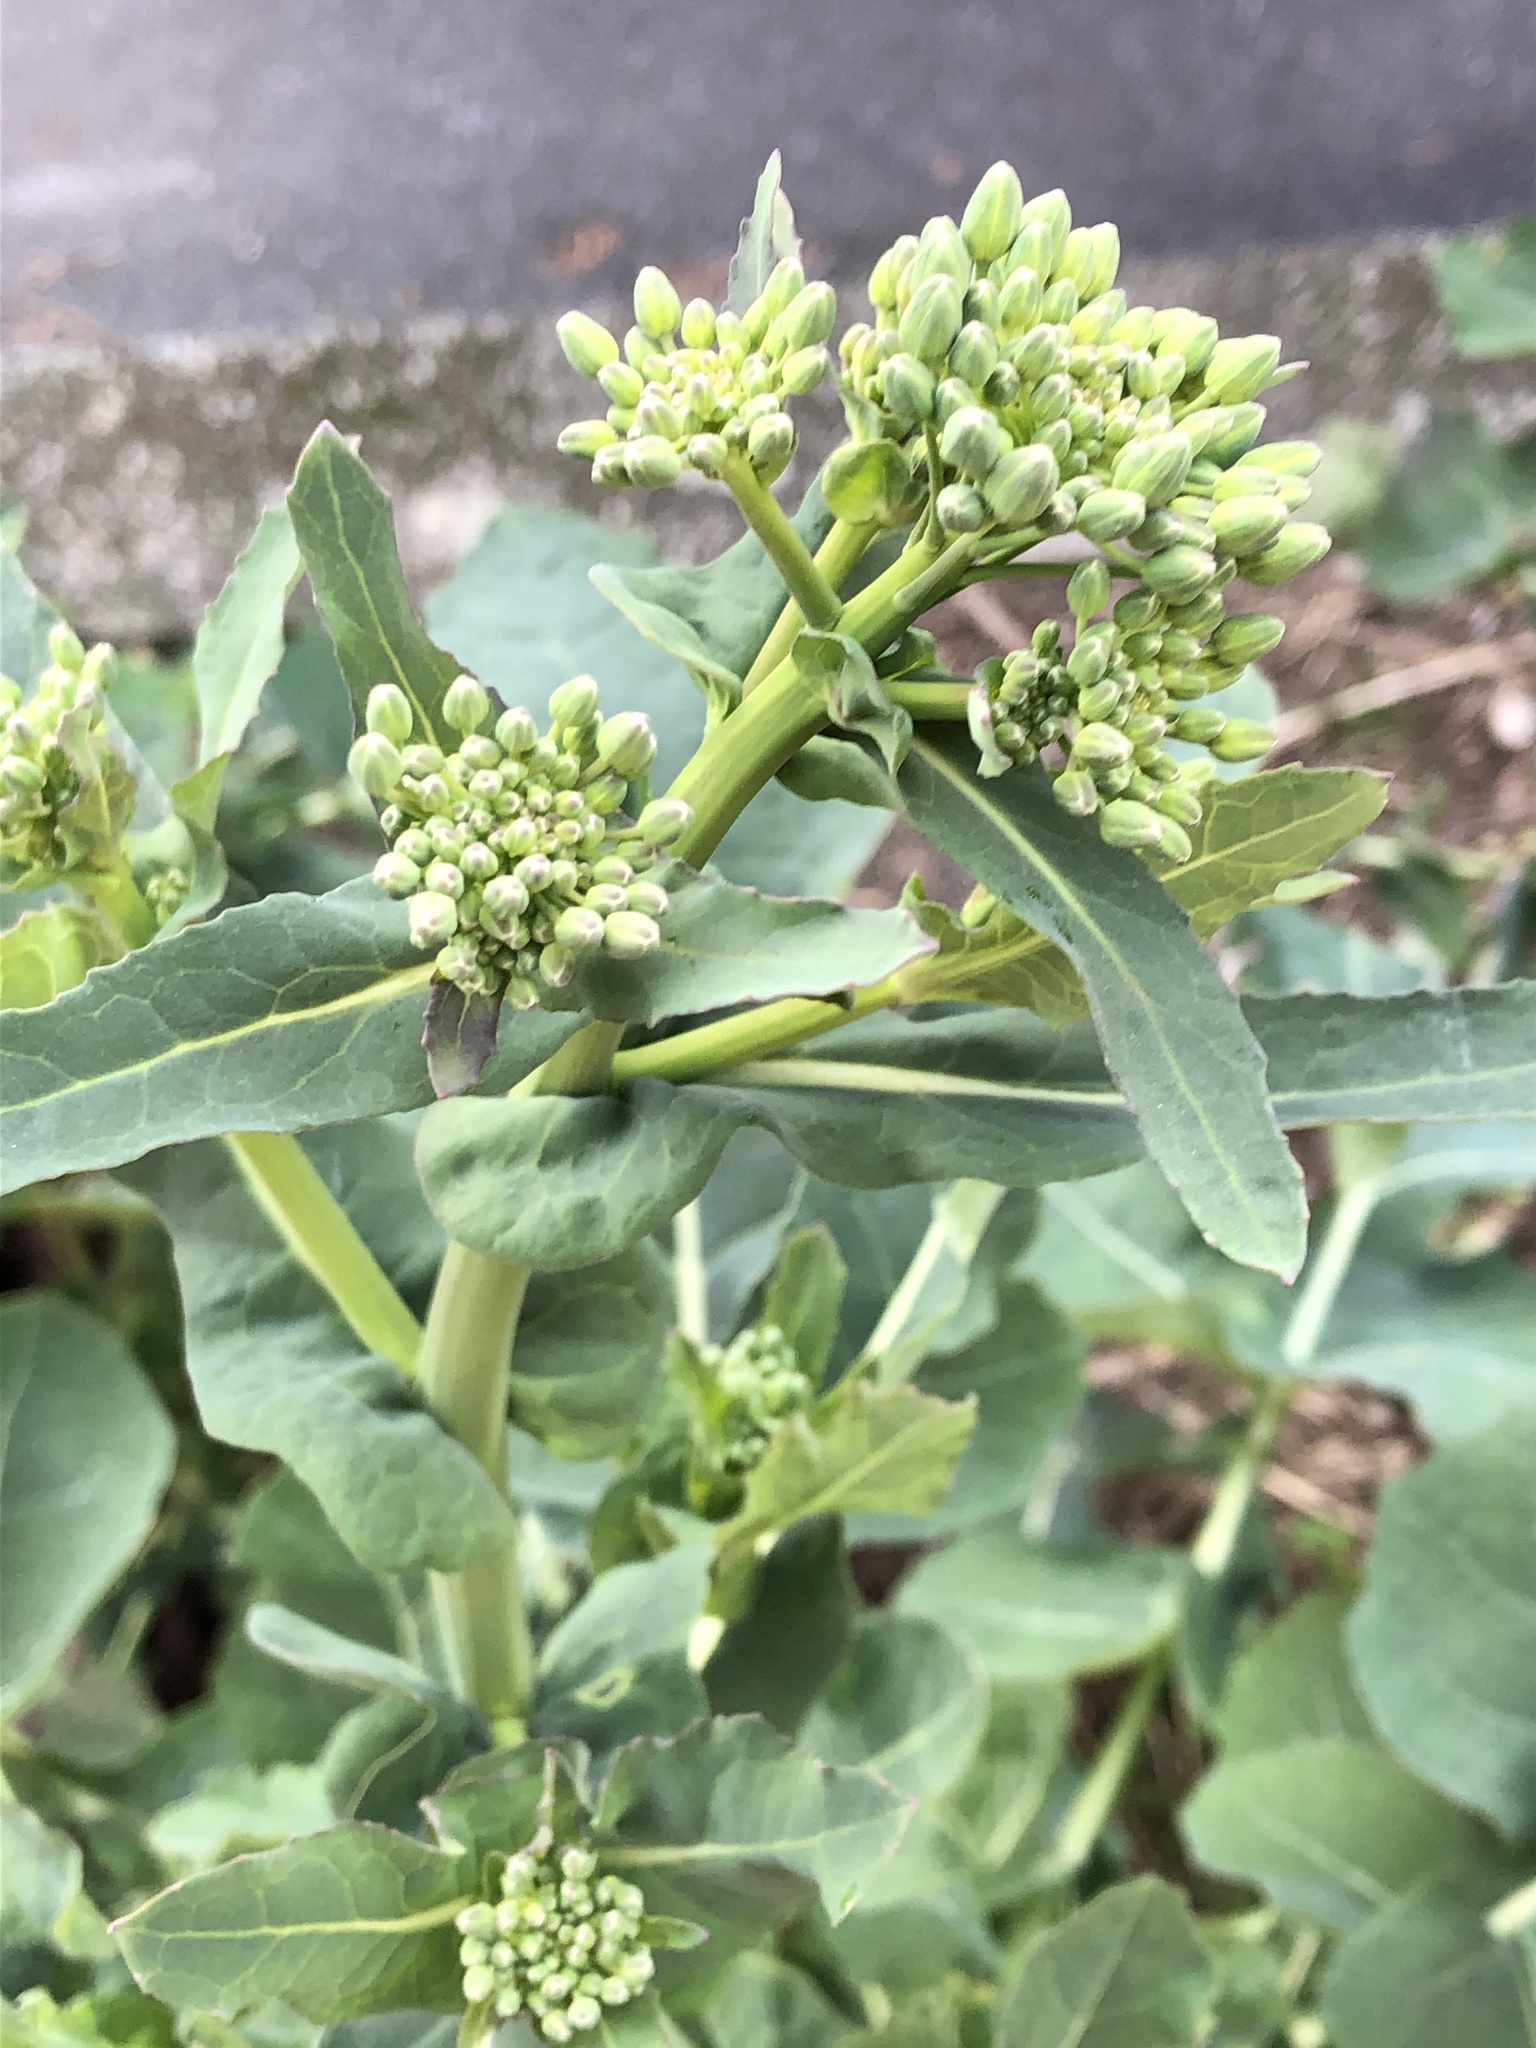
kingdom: Plantae
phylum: Tracheophyta
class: Magnoliopsida
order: Brassicales
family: Brassicaceae
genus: Brassica
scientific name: Brassica napus
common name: Rape
